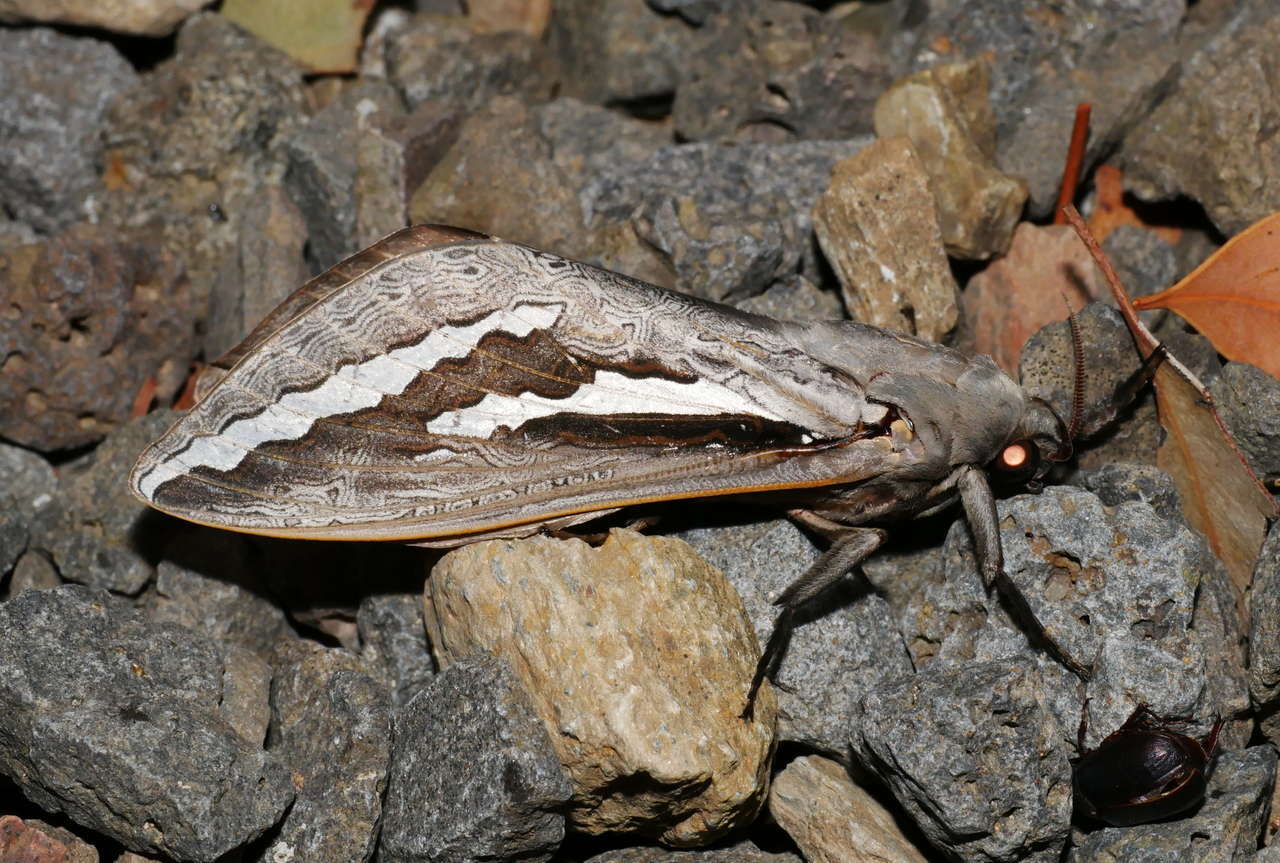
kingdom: Animalia
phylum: Arthropoda
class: Insecta
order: Lepidoptera
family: Hepialidae
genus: Abantiades
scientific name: Abantiades labyrinthicus
